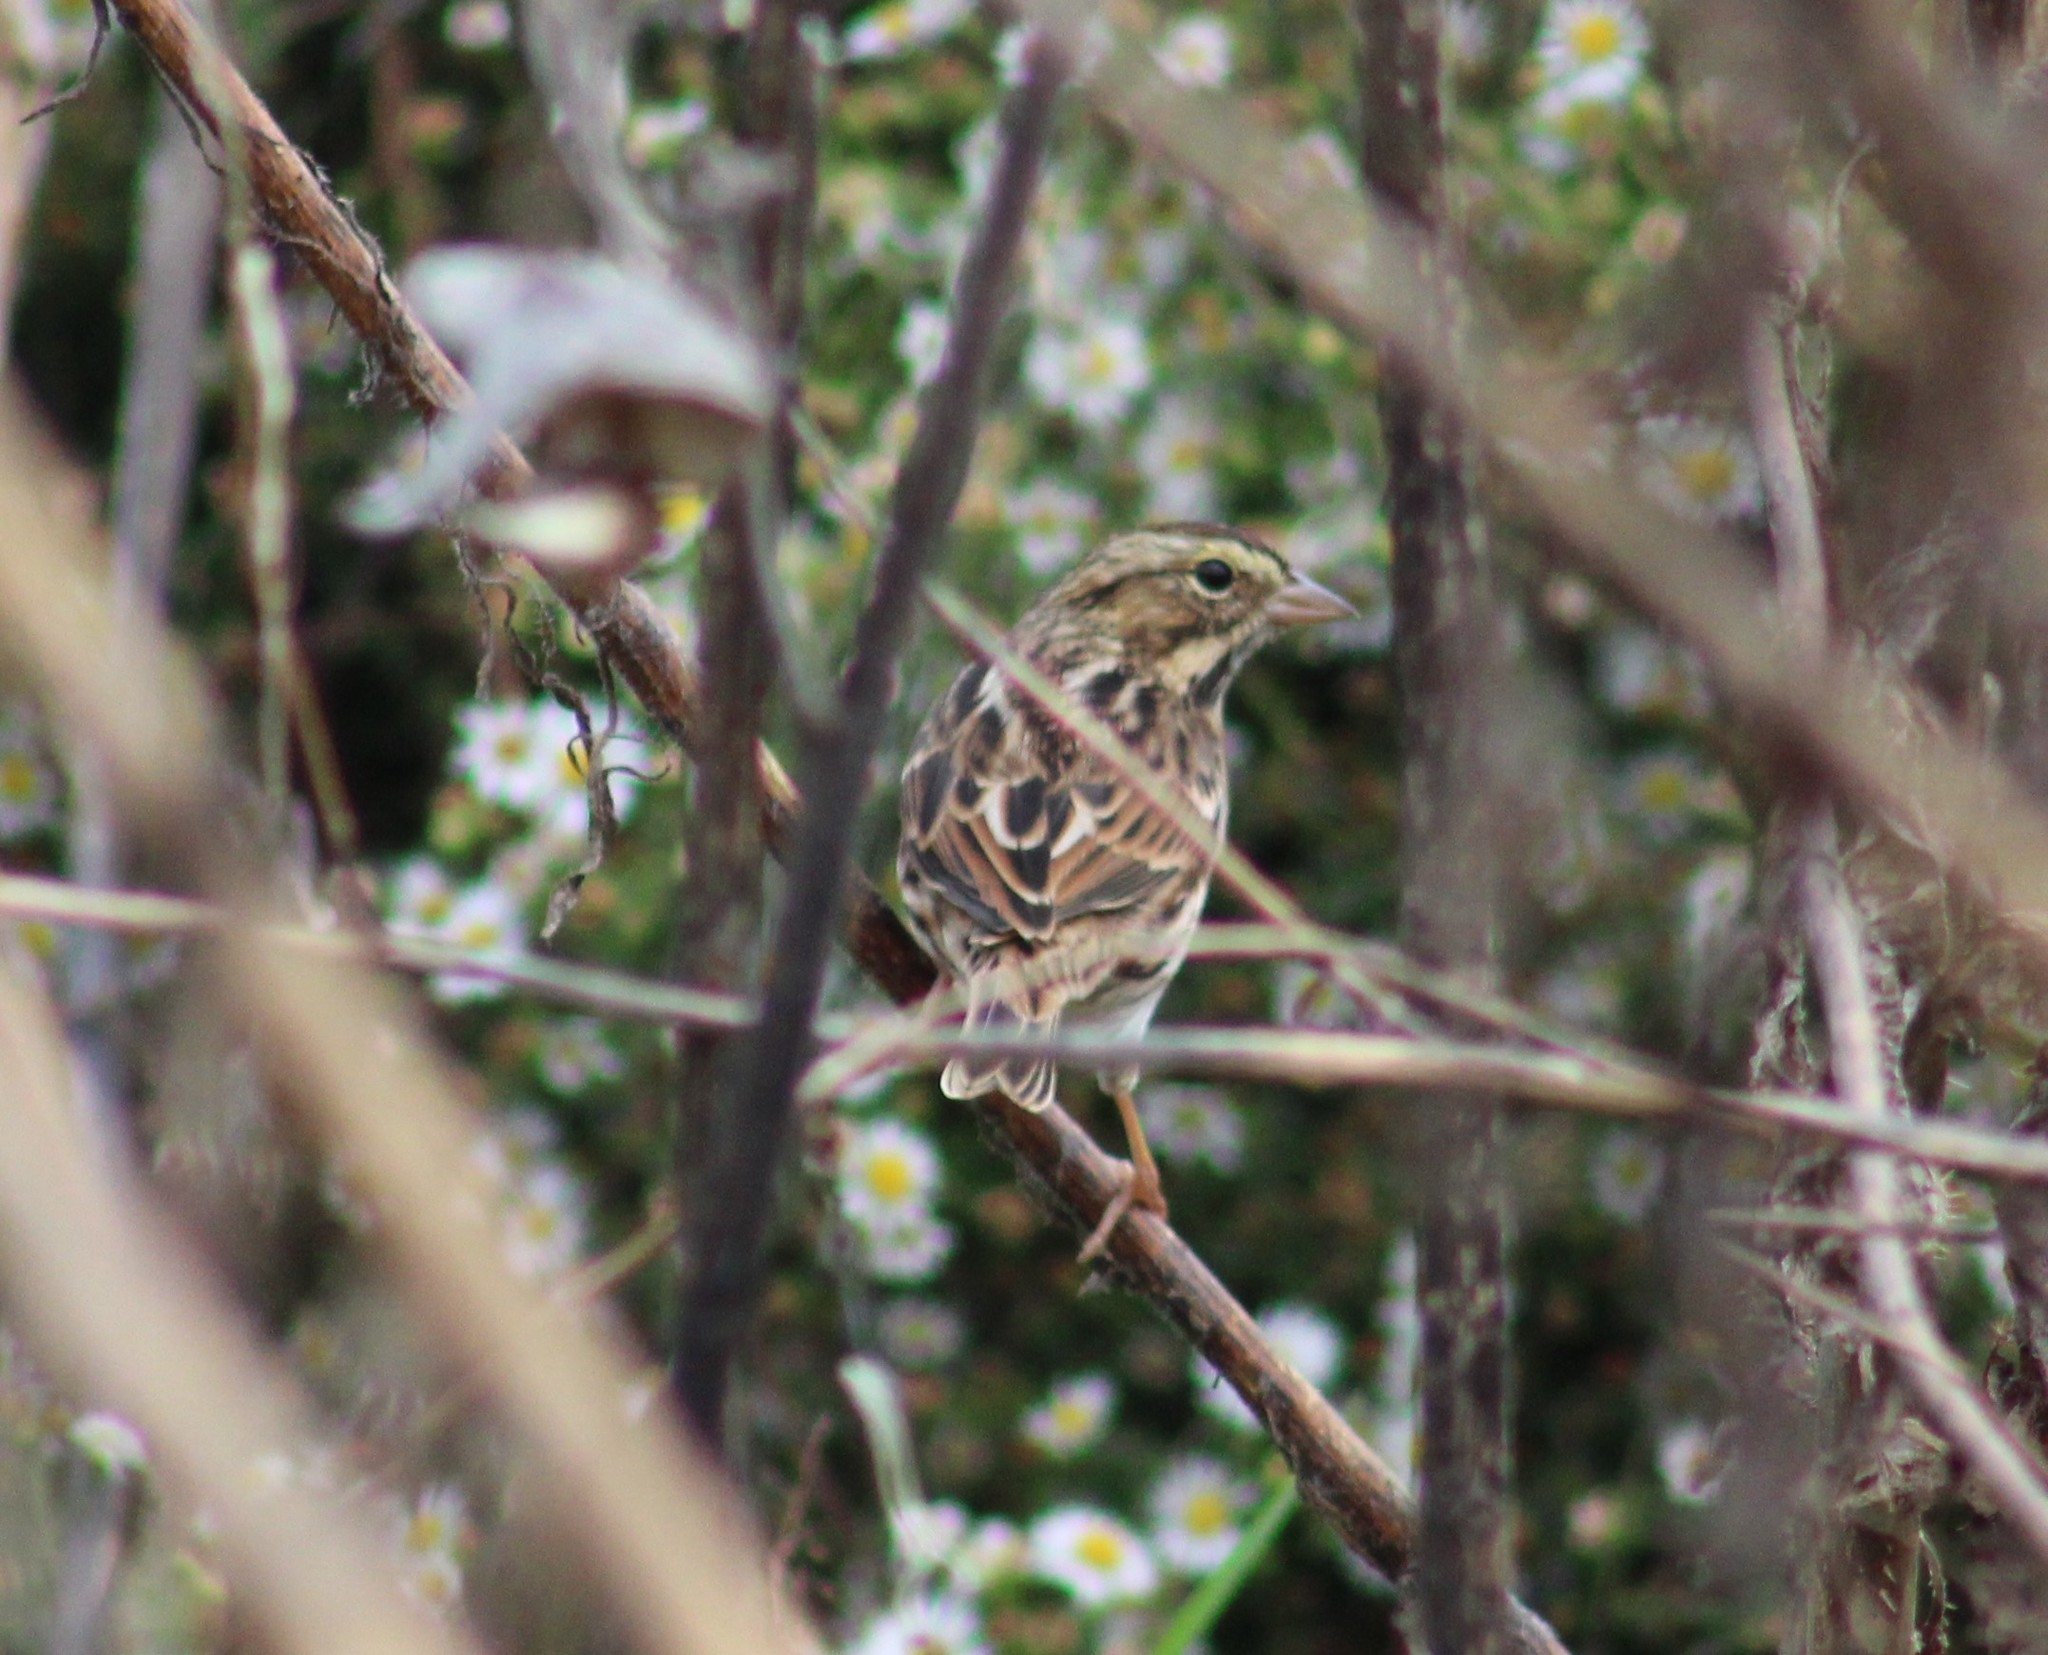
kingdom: Animalia
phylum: Chordata
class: Aves
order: Passeriformes
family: Passerellidae
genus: Passerculus
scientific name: Passerculus sandwichensis
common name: Savannah sparrow
